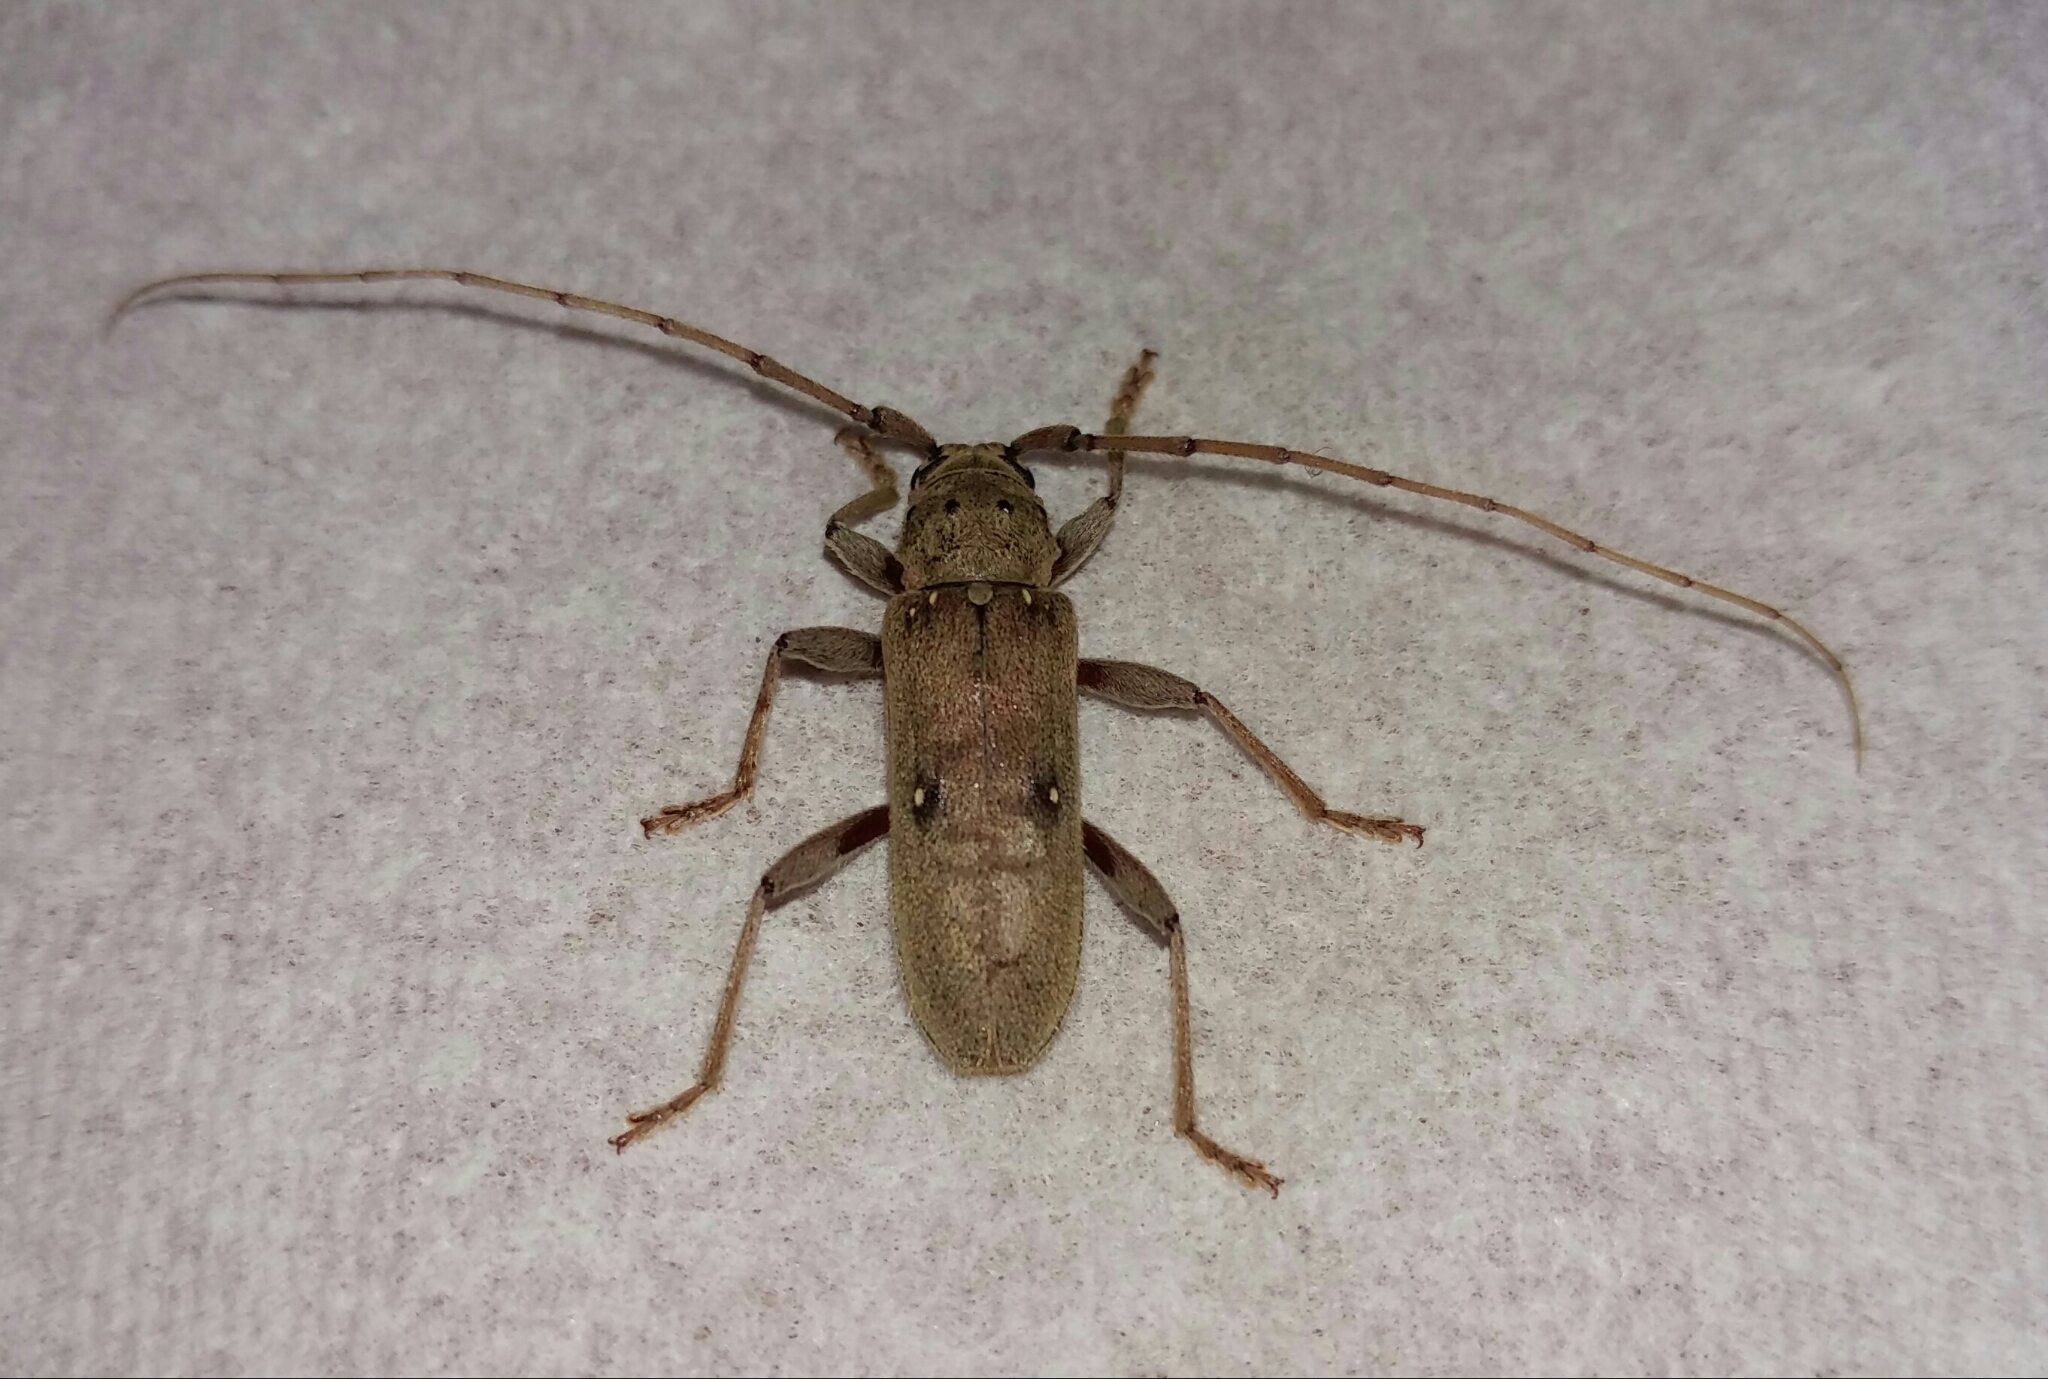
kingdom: Animalia
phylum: Arthropoda
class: Insecta
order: Coleoptera
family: Cerambycidae
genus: Eburia
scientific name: Eburia mutica
